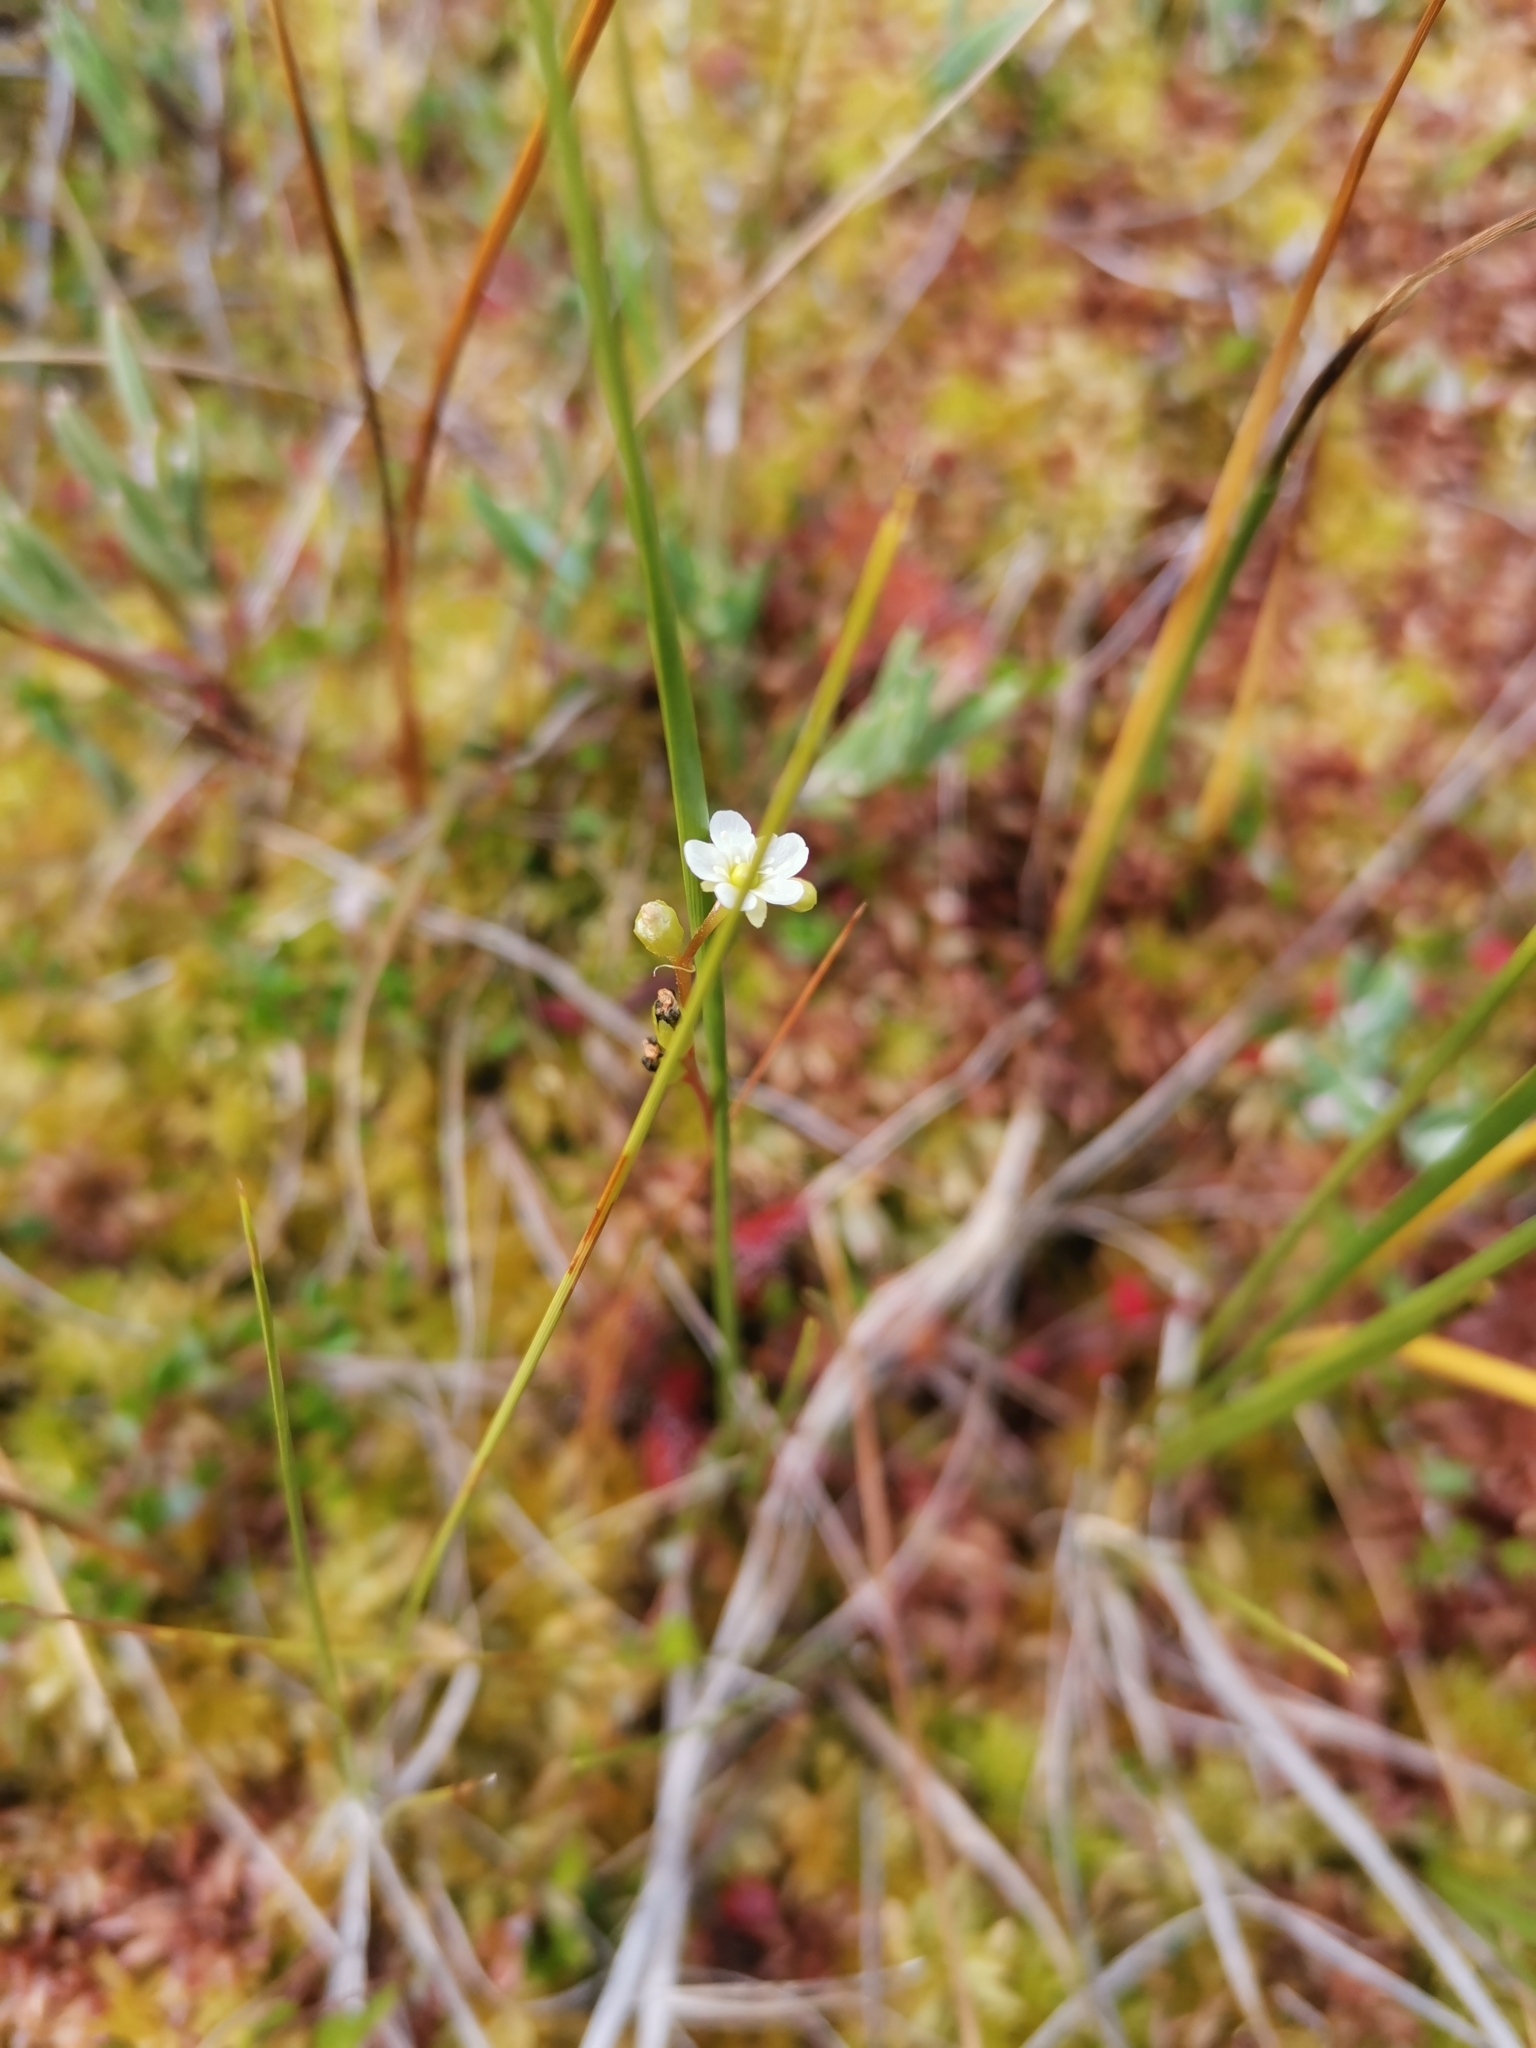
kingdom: Plantae
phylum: Tracheophyta
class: Magnoliopsida
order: Caryophyllales
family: Droseraceae
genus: Drosera
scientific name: Drosera anglica
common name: Great sundew
